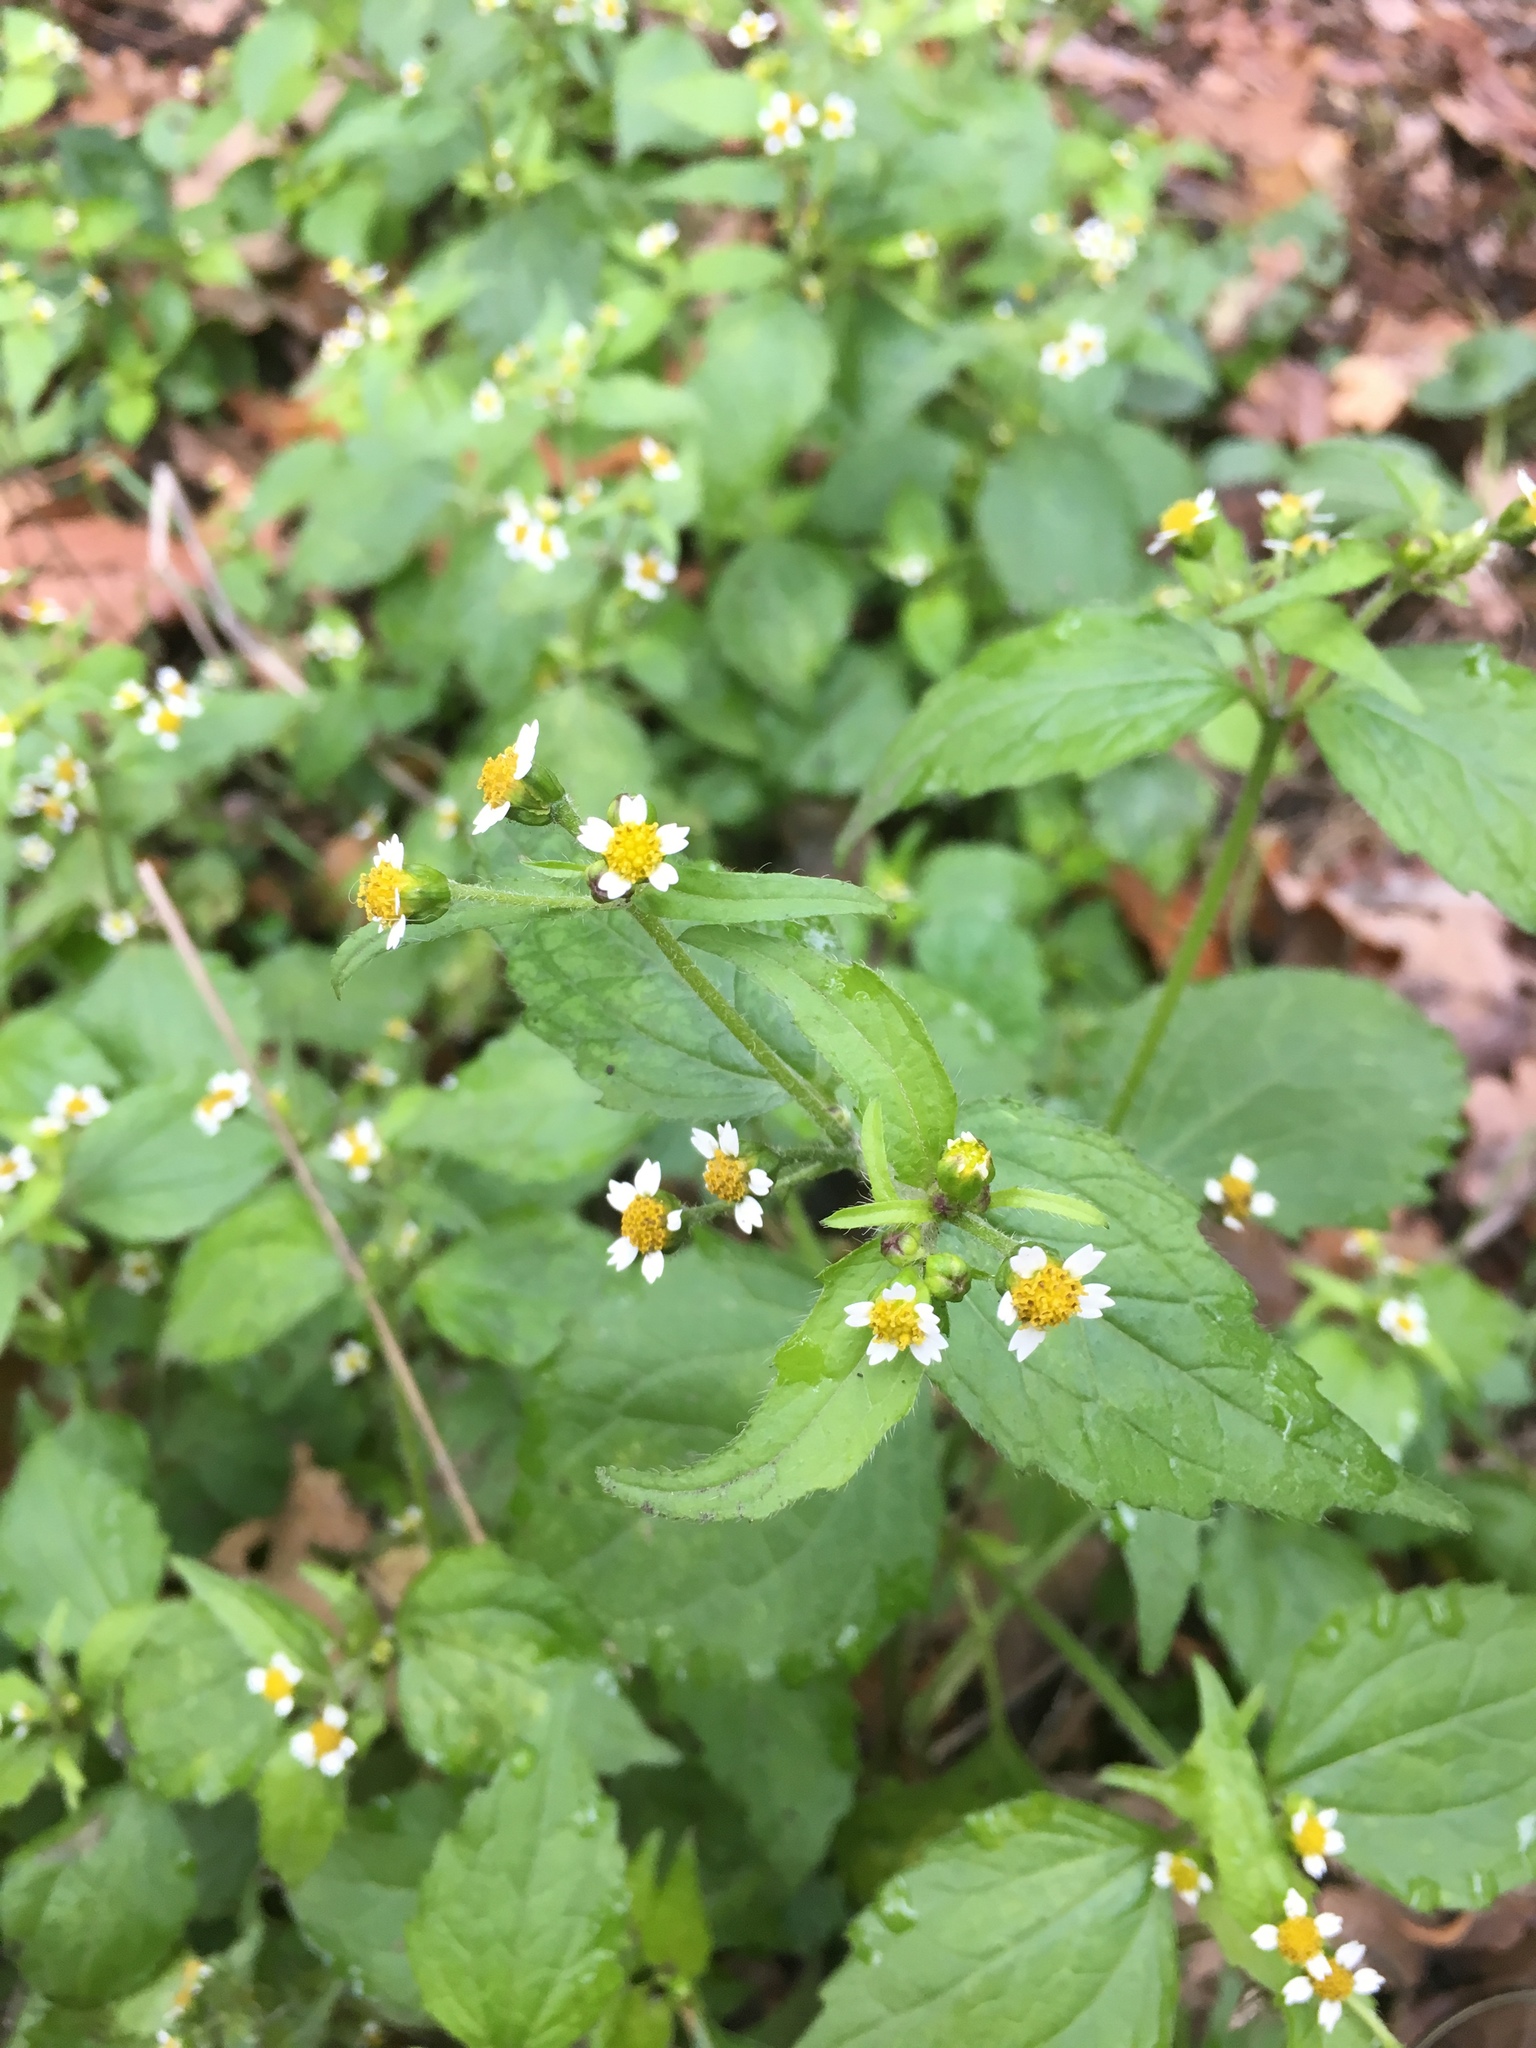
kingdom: Plantae
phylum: Tracheophyta
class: Magnoliopsida
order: Asterales
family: Asteraceae
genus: Galinsoga
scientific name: Galinsoga quadriradiata
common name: Shaggy soldier
